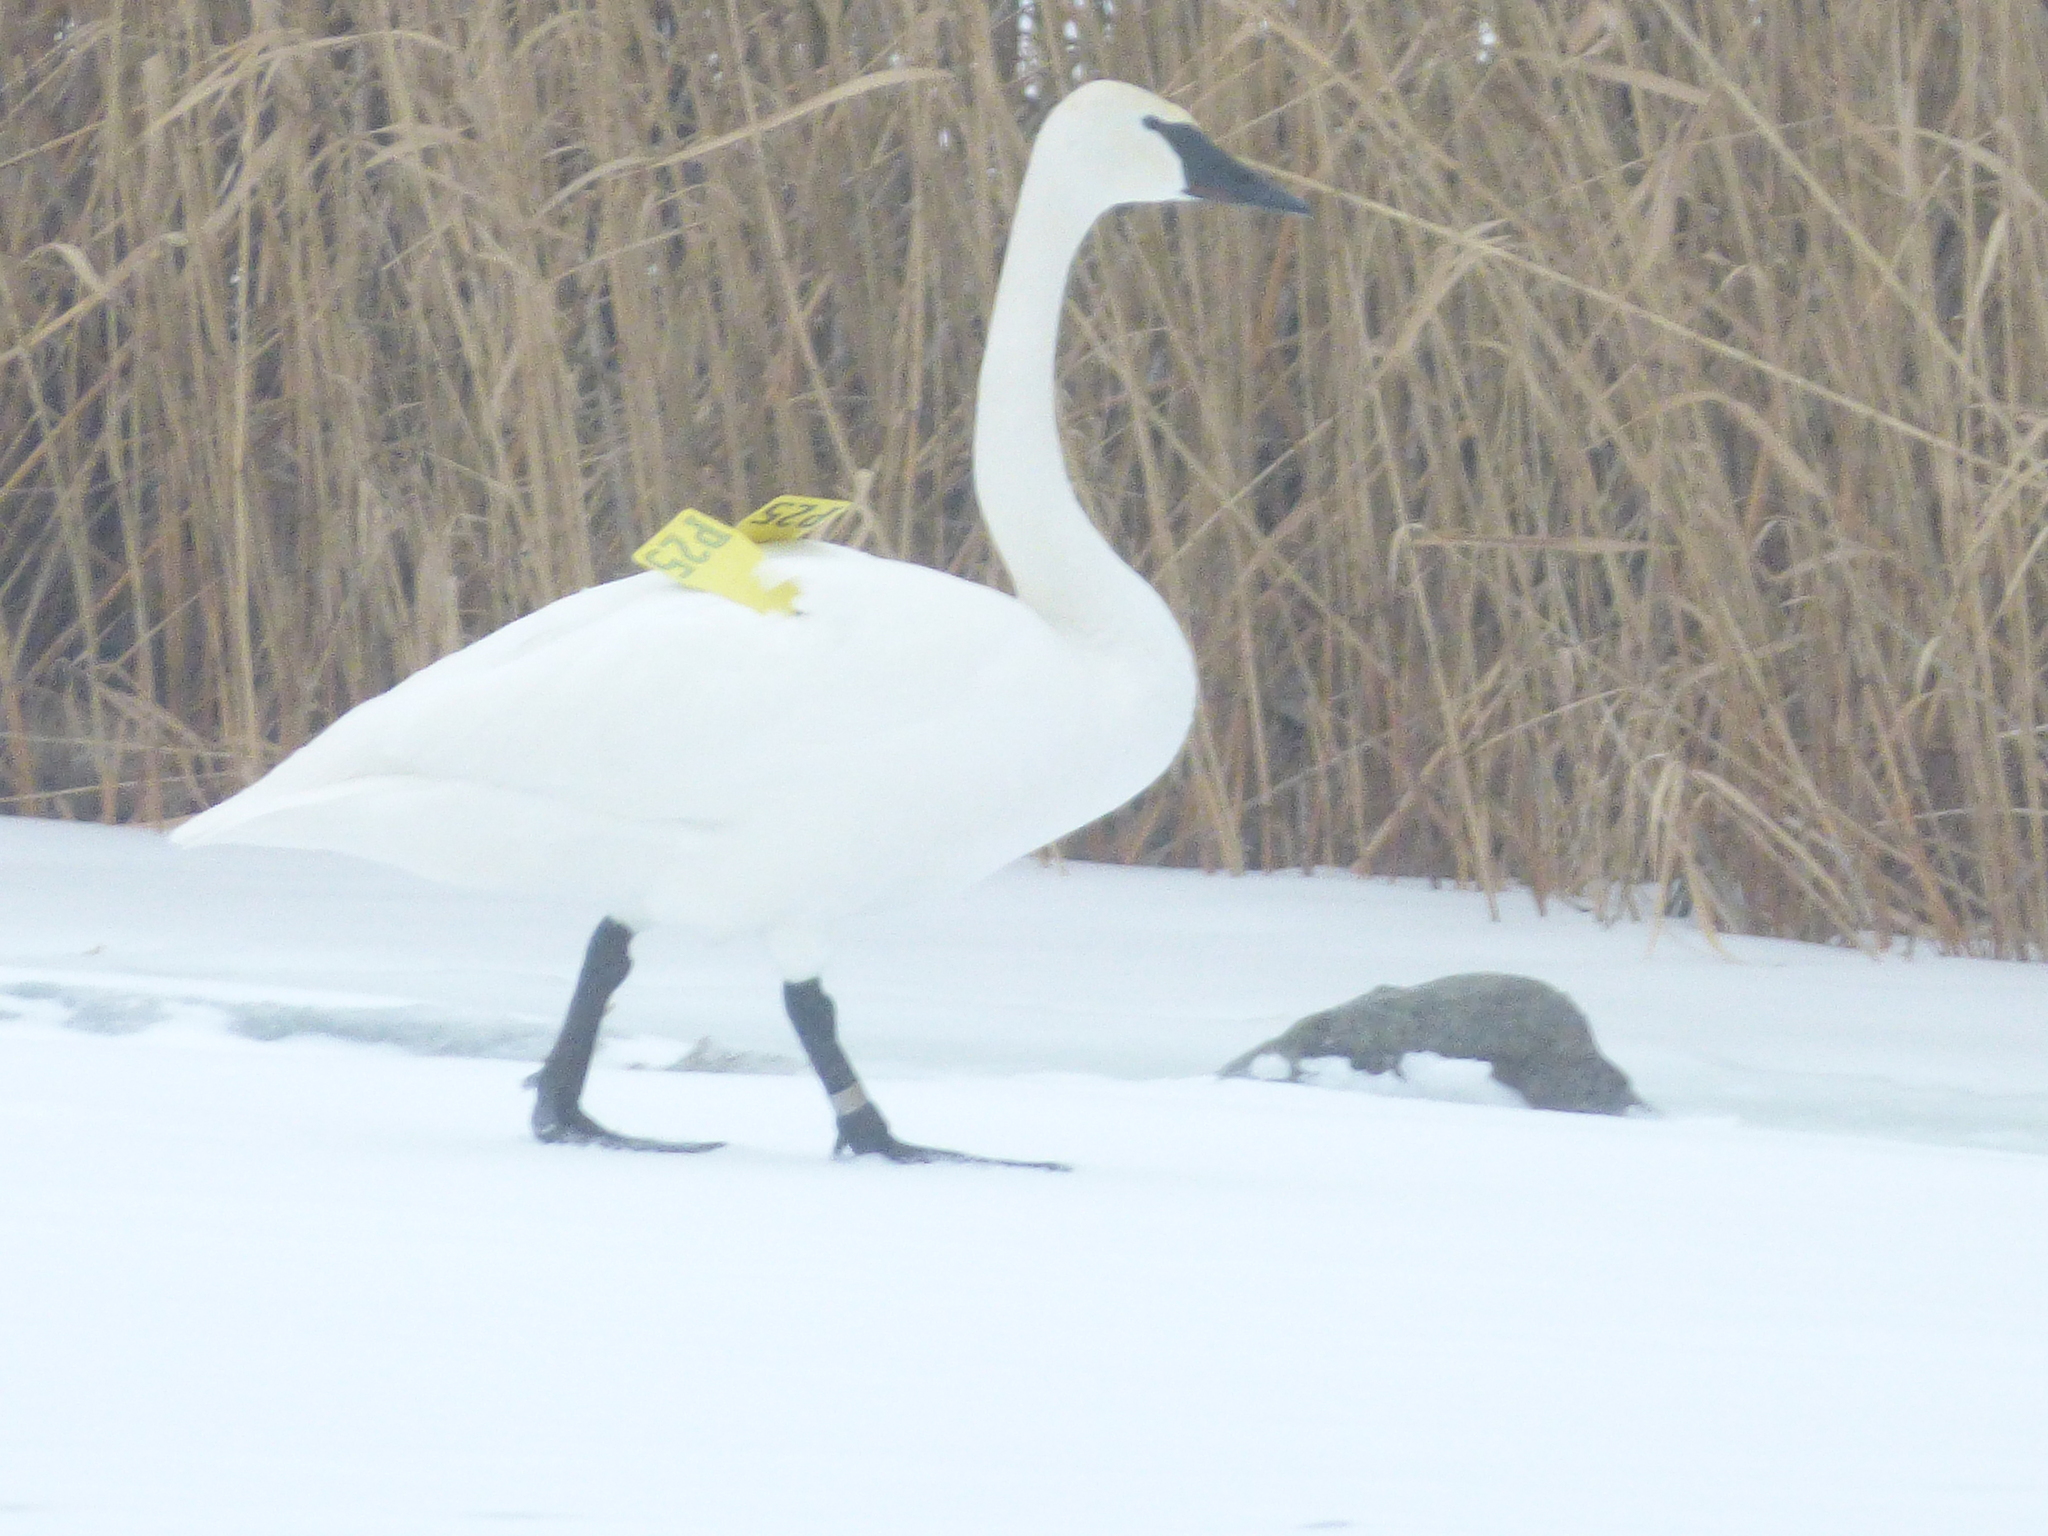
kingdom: Animalia
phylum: Chordata
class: Aves
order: Anseriformes
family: Anatidae
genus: Cygnus
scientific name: Cygnus buccinator
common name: Trumpeter swan
